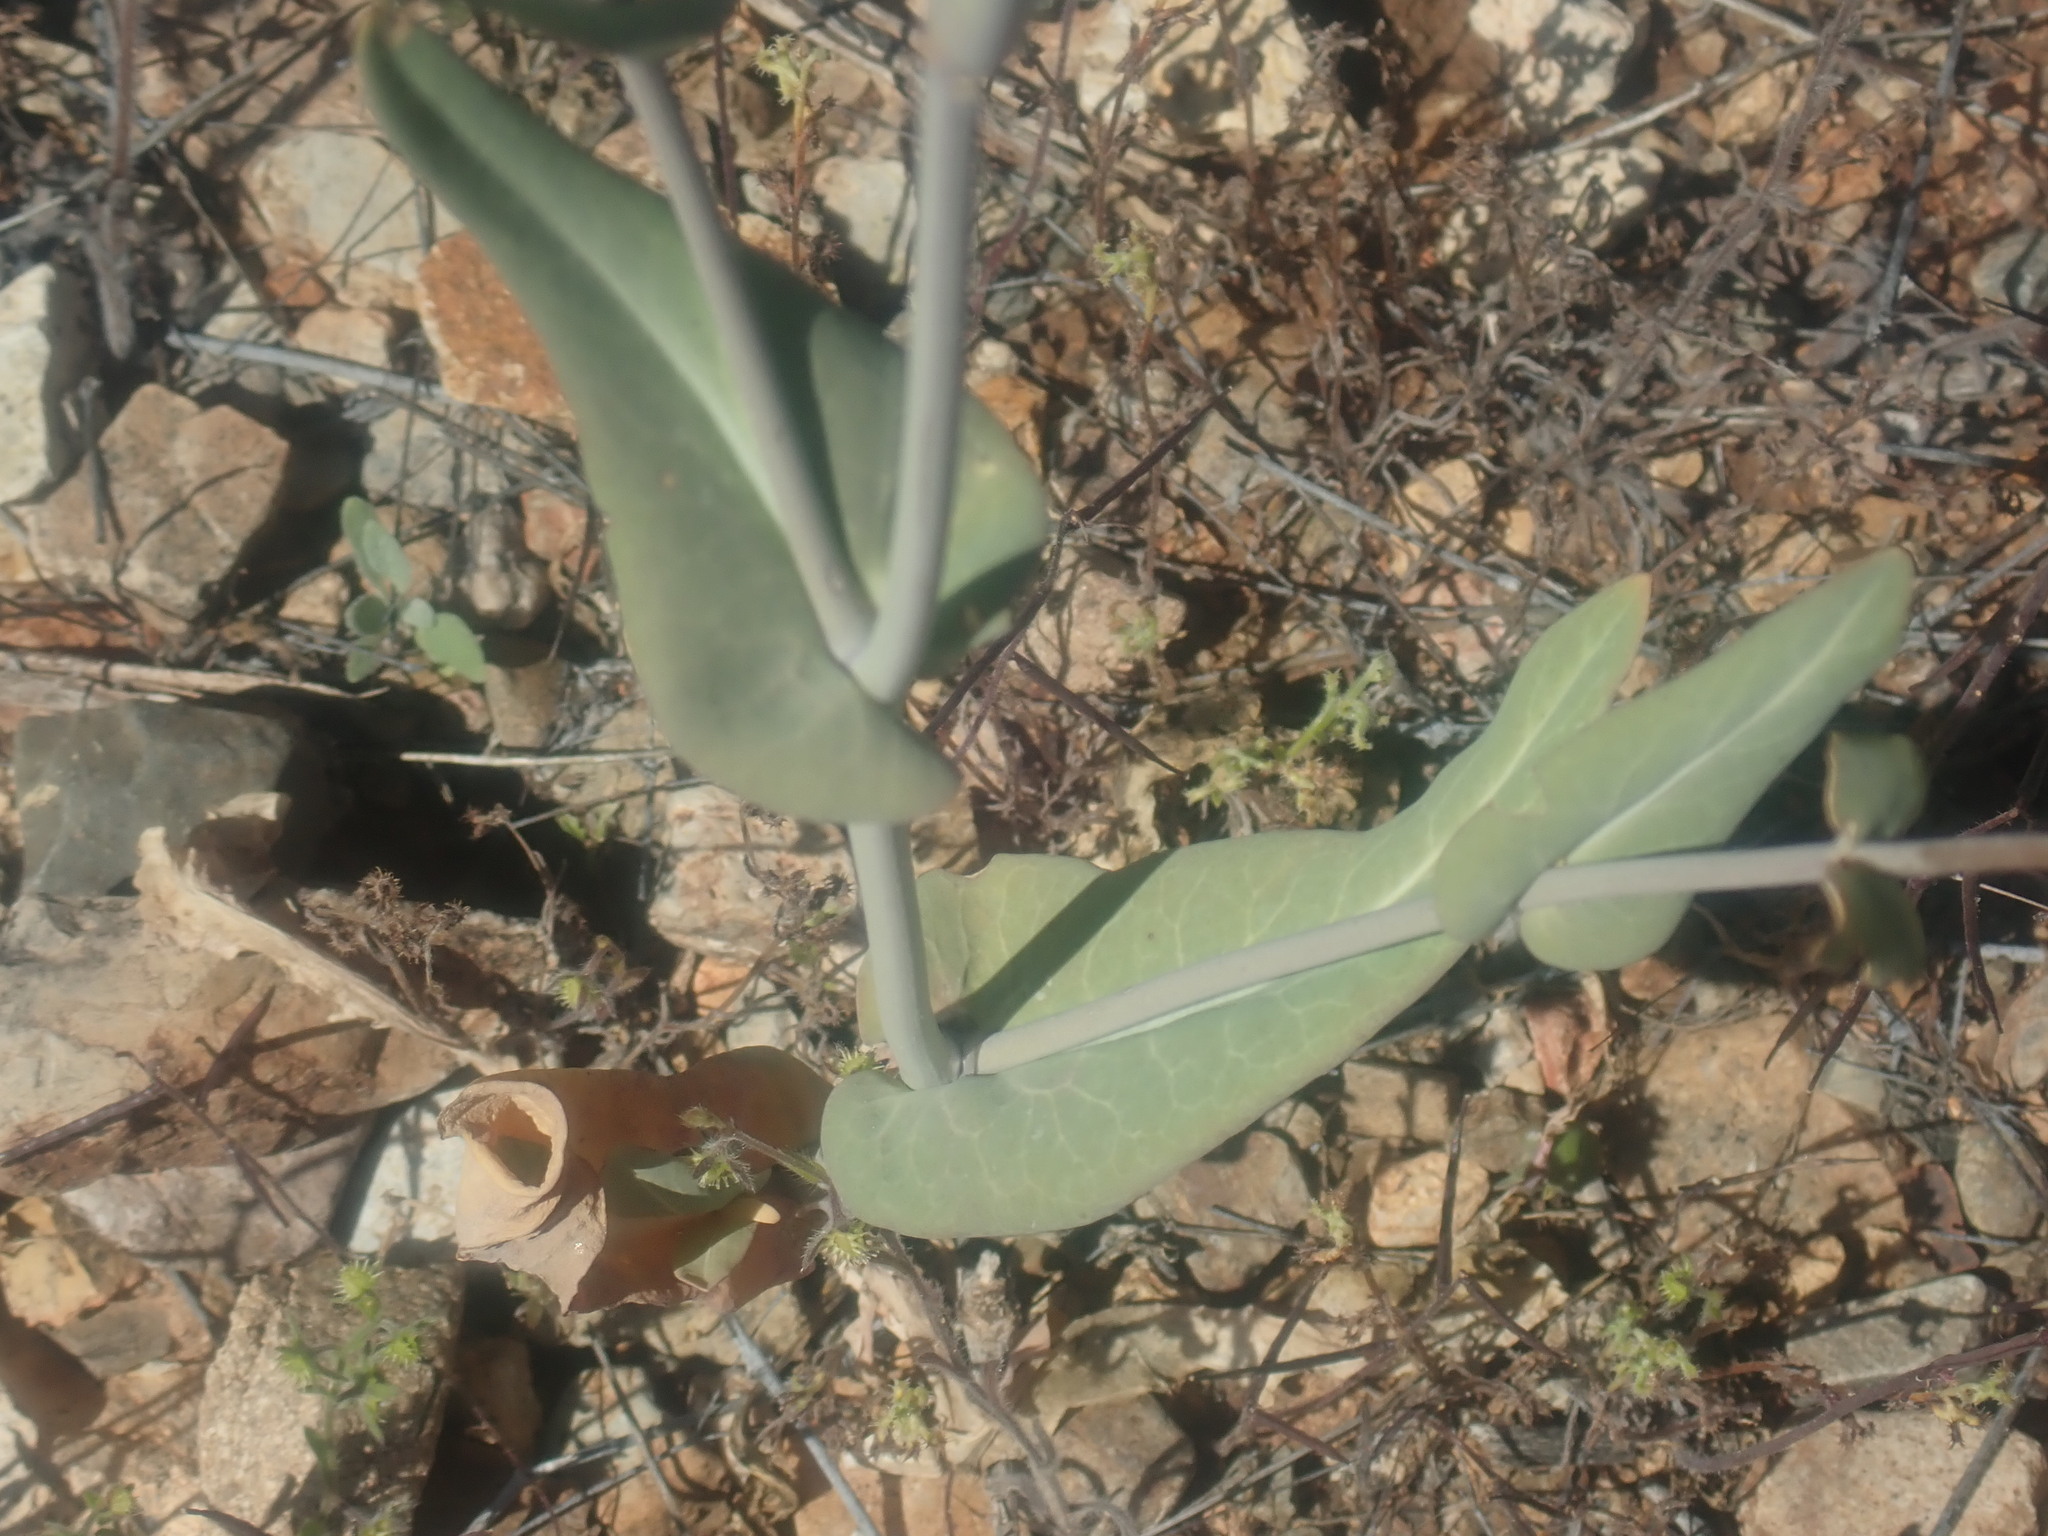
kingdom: Plantae
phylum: Tracheophyta
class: Magnoliopsida
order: Brassicales
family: Brassicaceae
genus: Streptanthus
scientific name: Streptanthus carinatus
